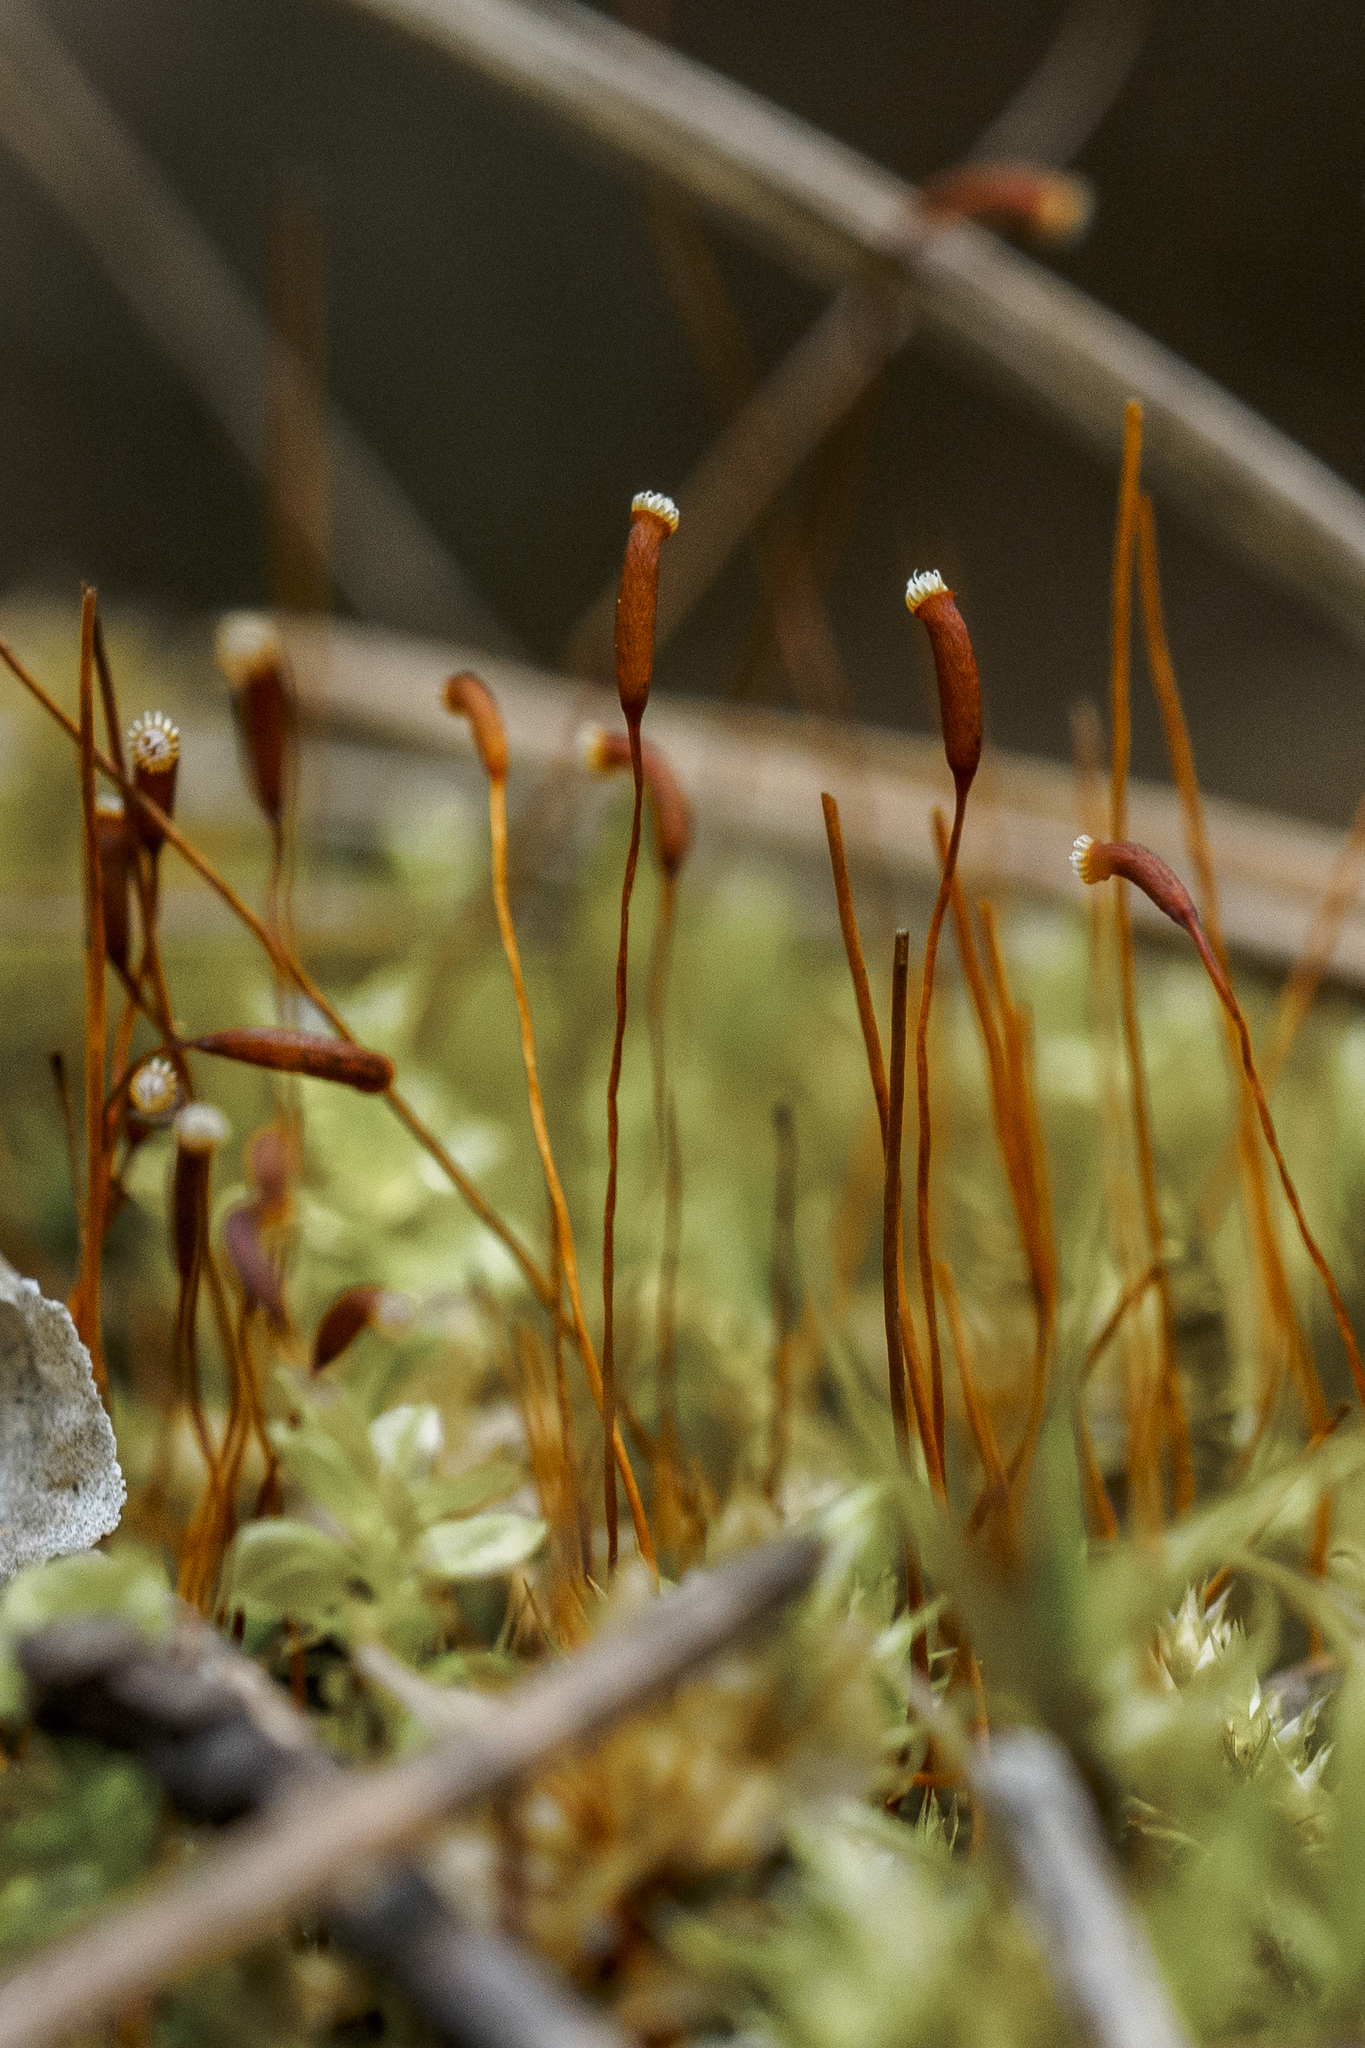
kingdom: Plantae
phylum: Bryophyta
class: Bryopsida
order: Hypnales
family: Callicladiaceae
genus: Callicladium
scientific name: Callicladium haldanianum
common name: Beautiful branch moss
